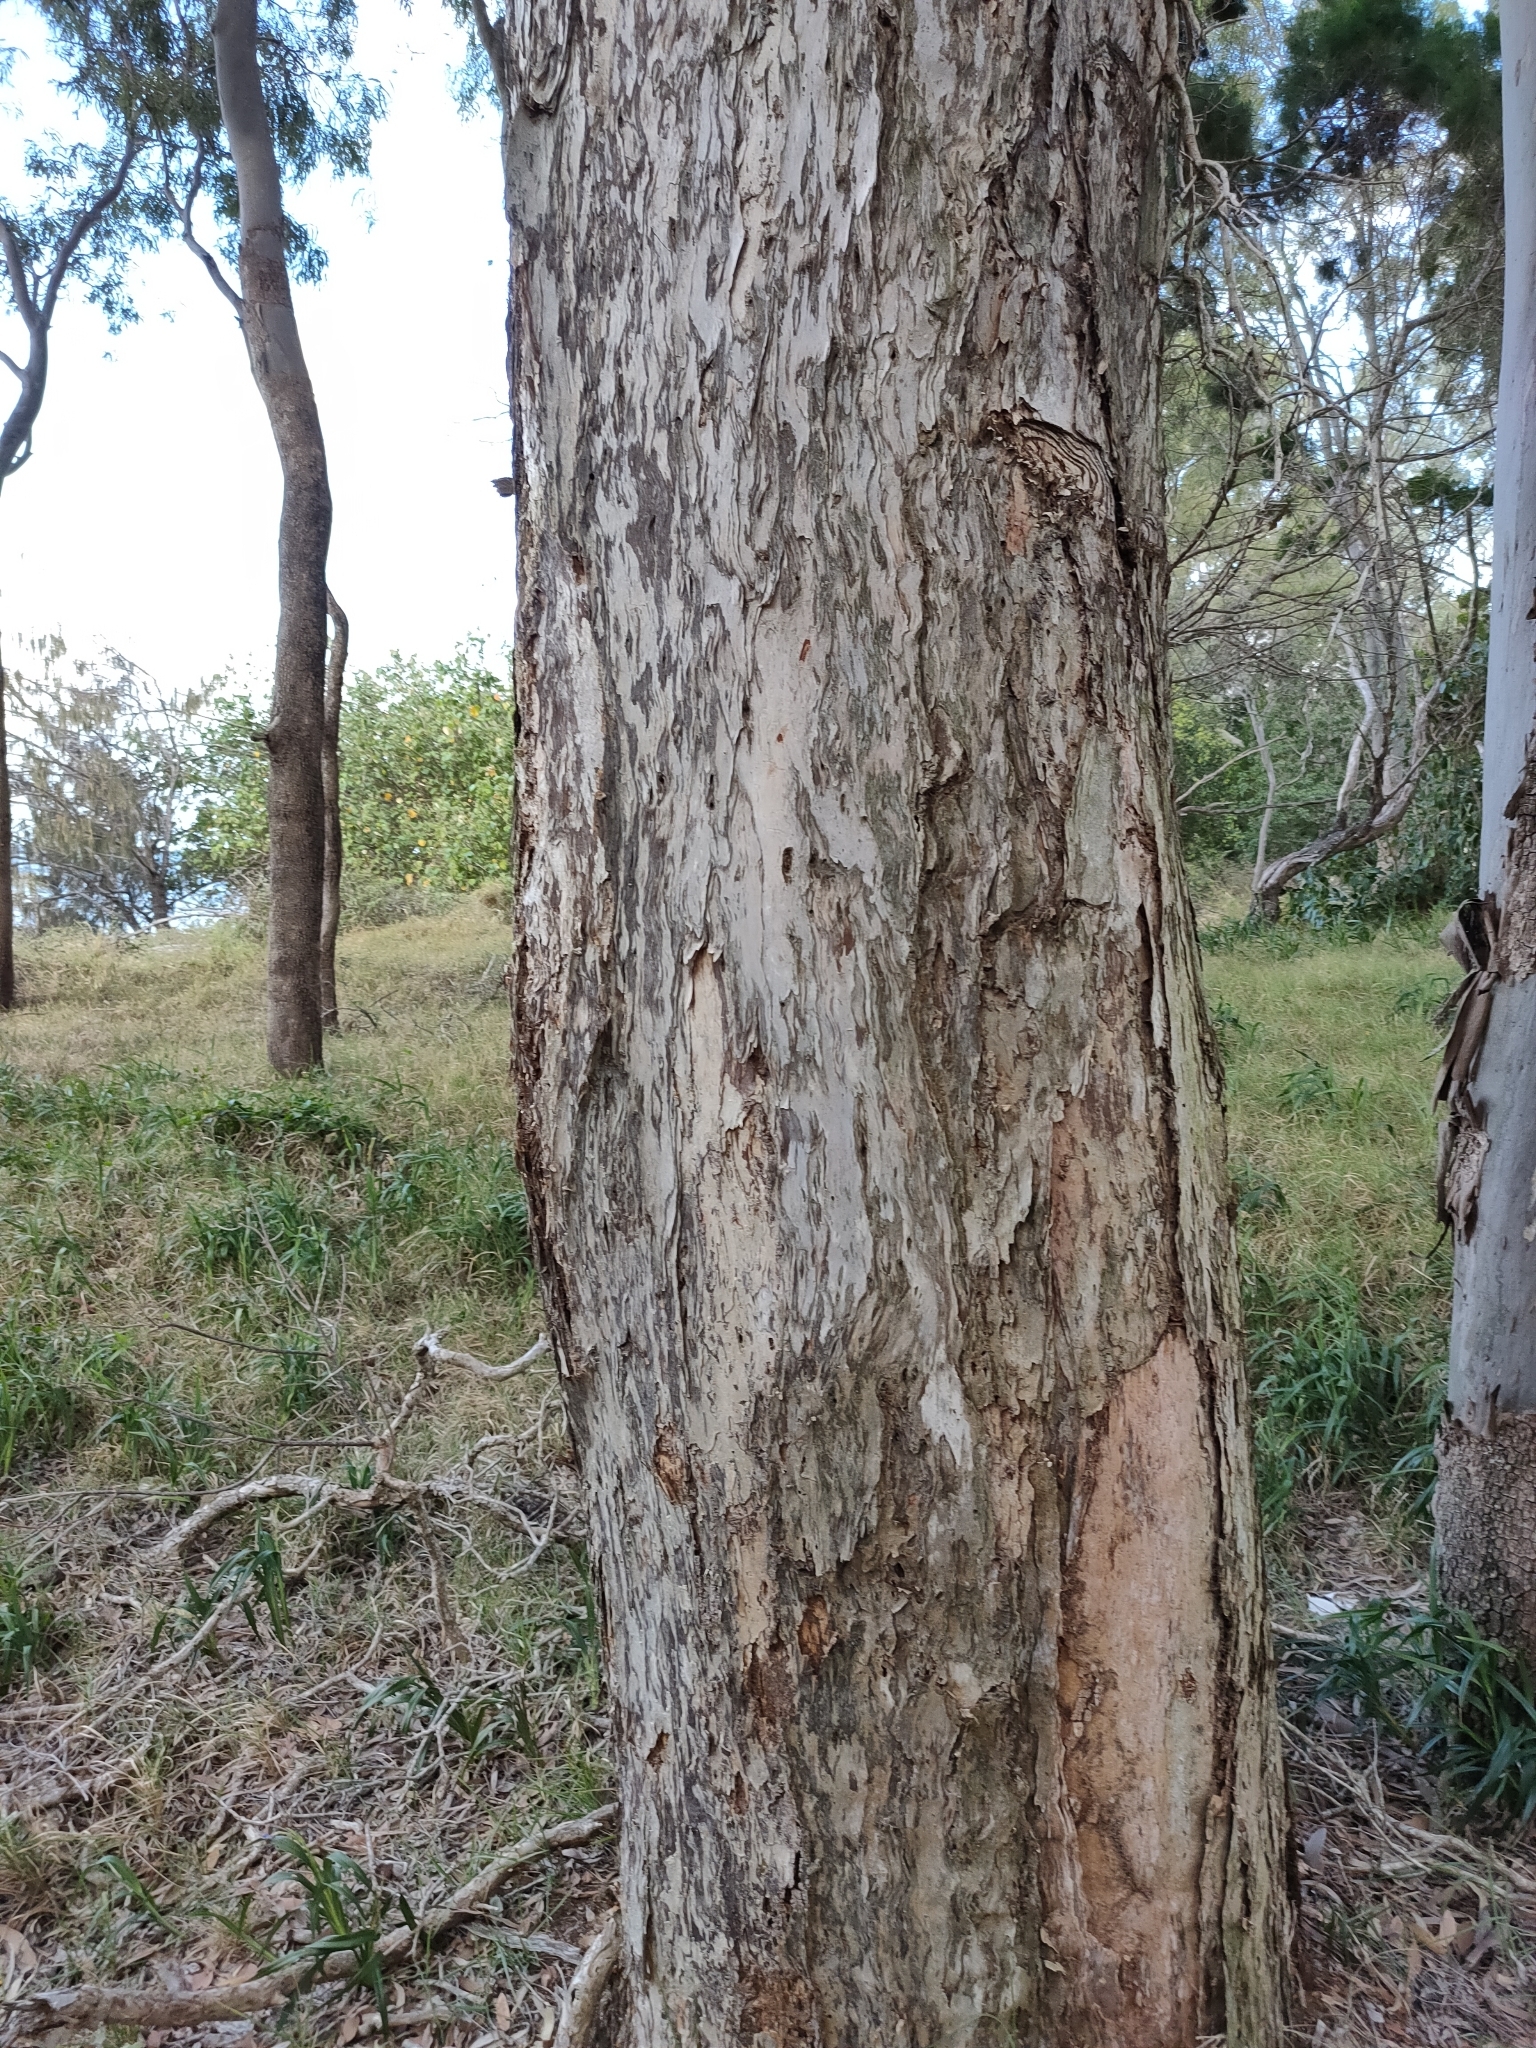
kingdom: Plantae
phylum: Tracheophyta
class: Magnoliopsida
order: Myrtales
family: Myrtaceae
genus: Melaleuca
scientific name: Melaleuca dealbata
